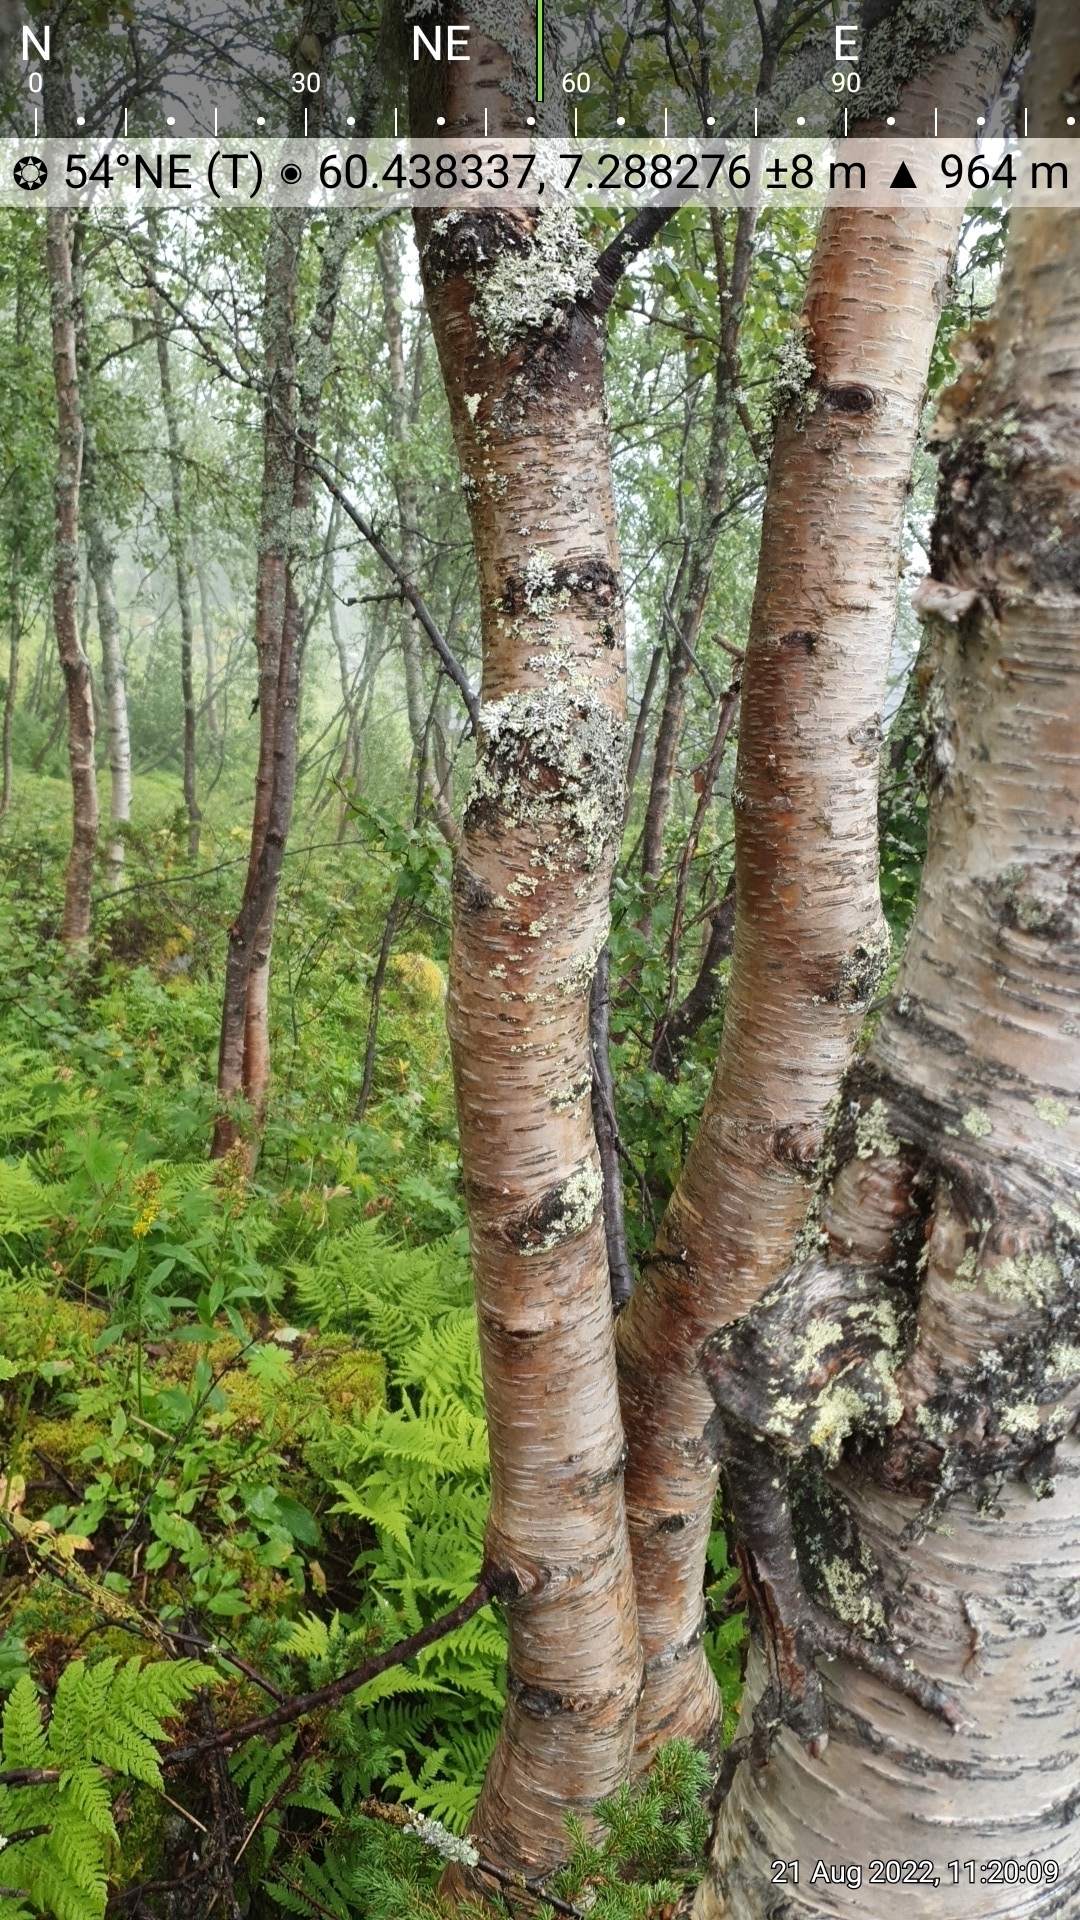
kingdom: Fungi
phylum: Ascomycota
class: Lecanoromycetes
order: Lecanorales
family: Parmeliaceae
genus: Melanohalea
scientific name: Melanohalea olivacea
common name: Spotted camouflage lichen
